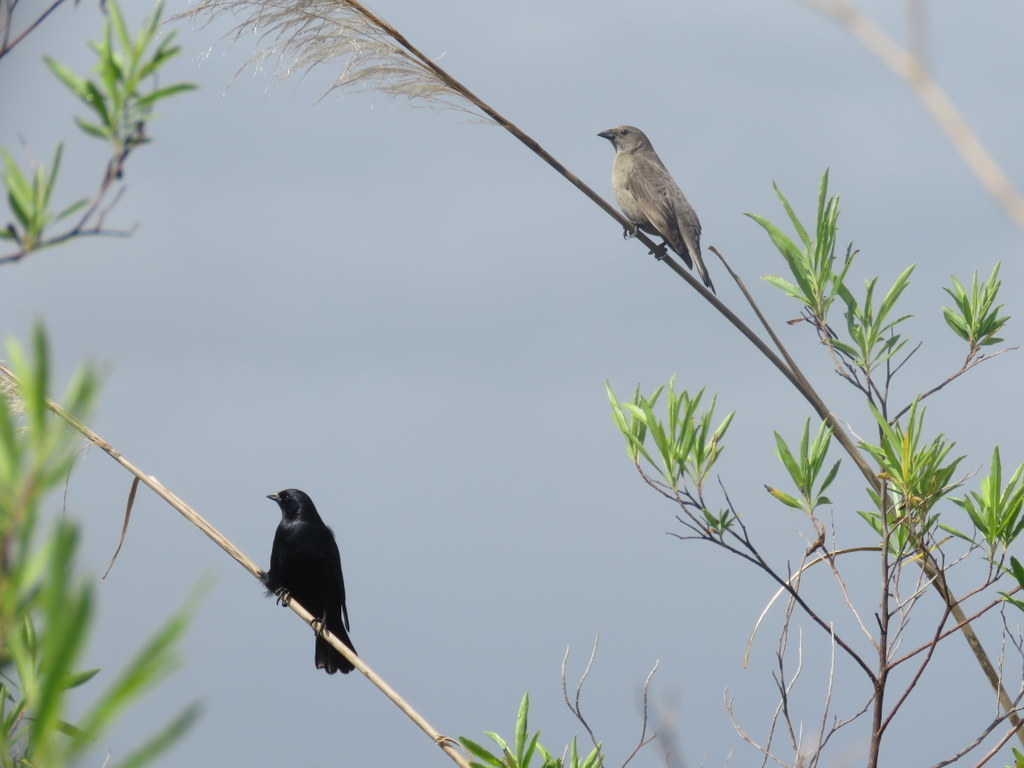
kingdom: Animalia
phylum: Chordata
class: Aves
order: Passeriformes
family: Icteridae
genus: Molothrus
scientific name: Molothrus bonariensis
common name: Shiny cowbird
